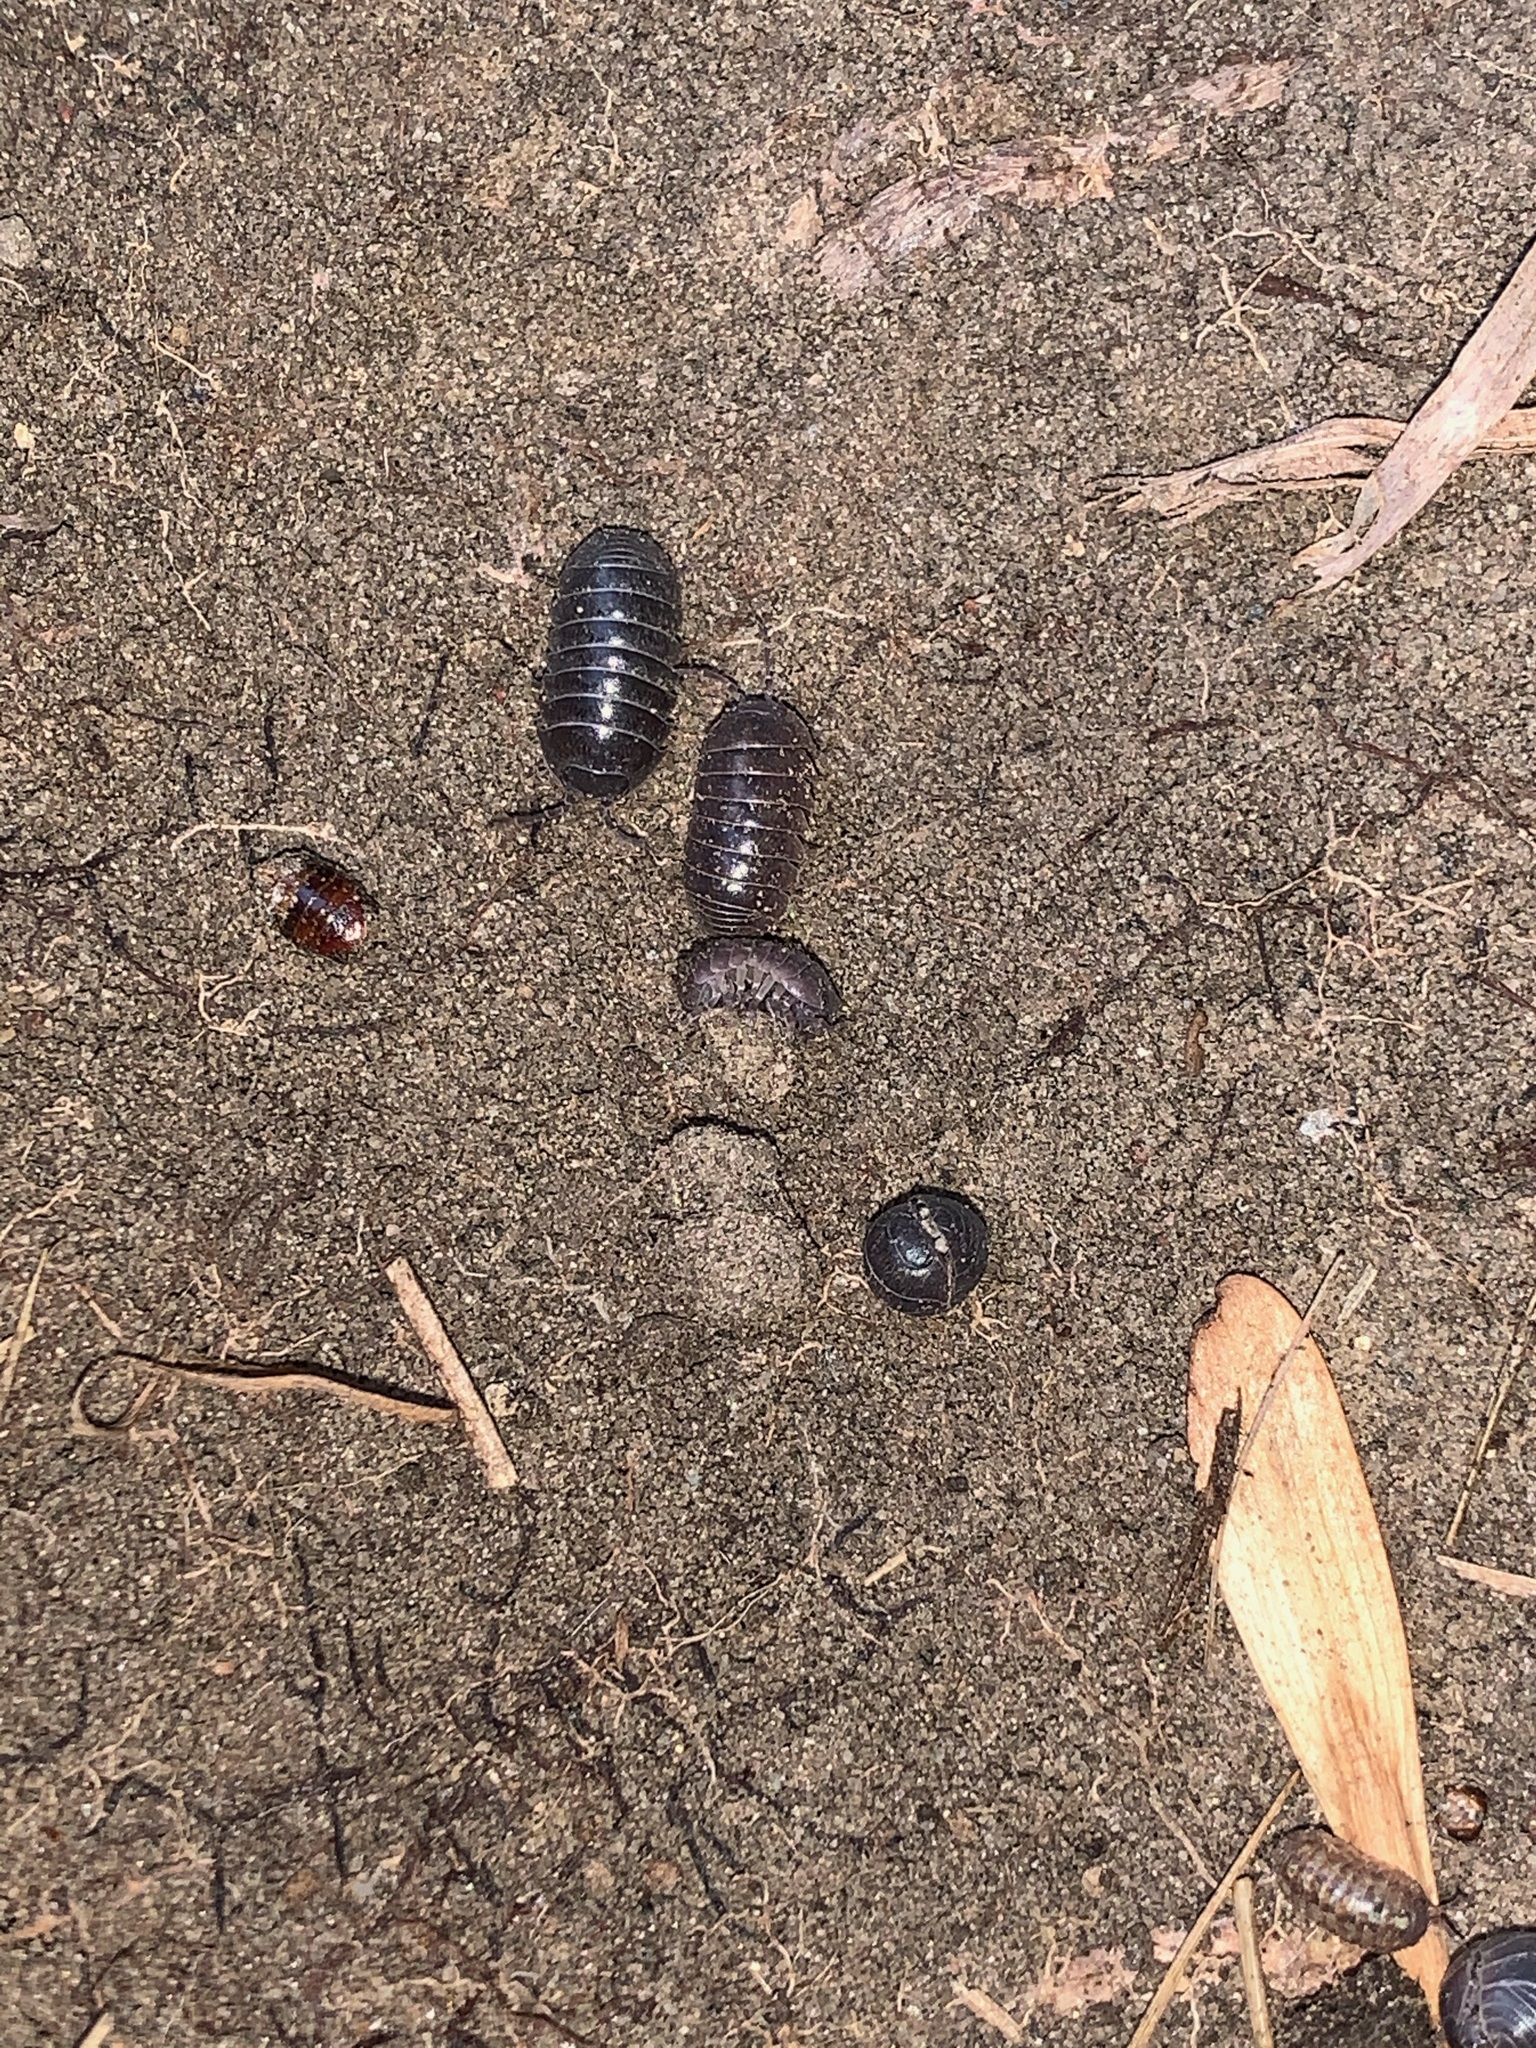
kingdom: Animalia
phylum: Arthropoda
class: Malacostraca
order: Isopoda
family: Armadillidiidae
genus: Armadillidium
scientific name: Armadillidium vulgare
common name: Common pill woodlouse
